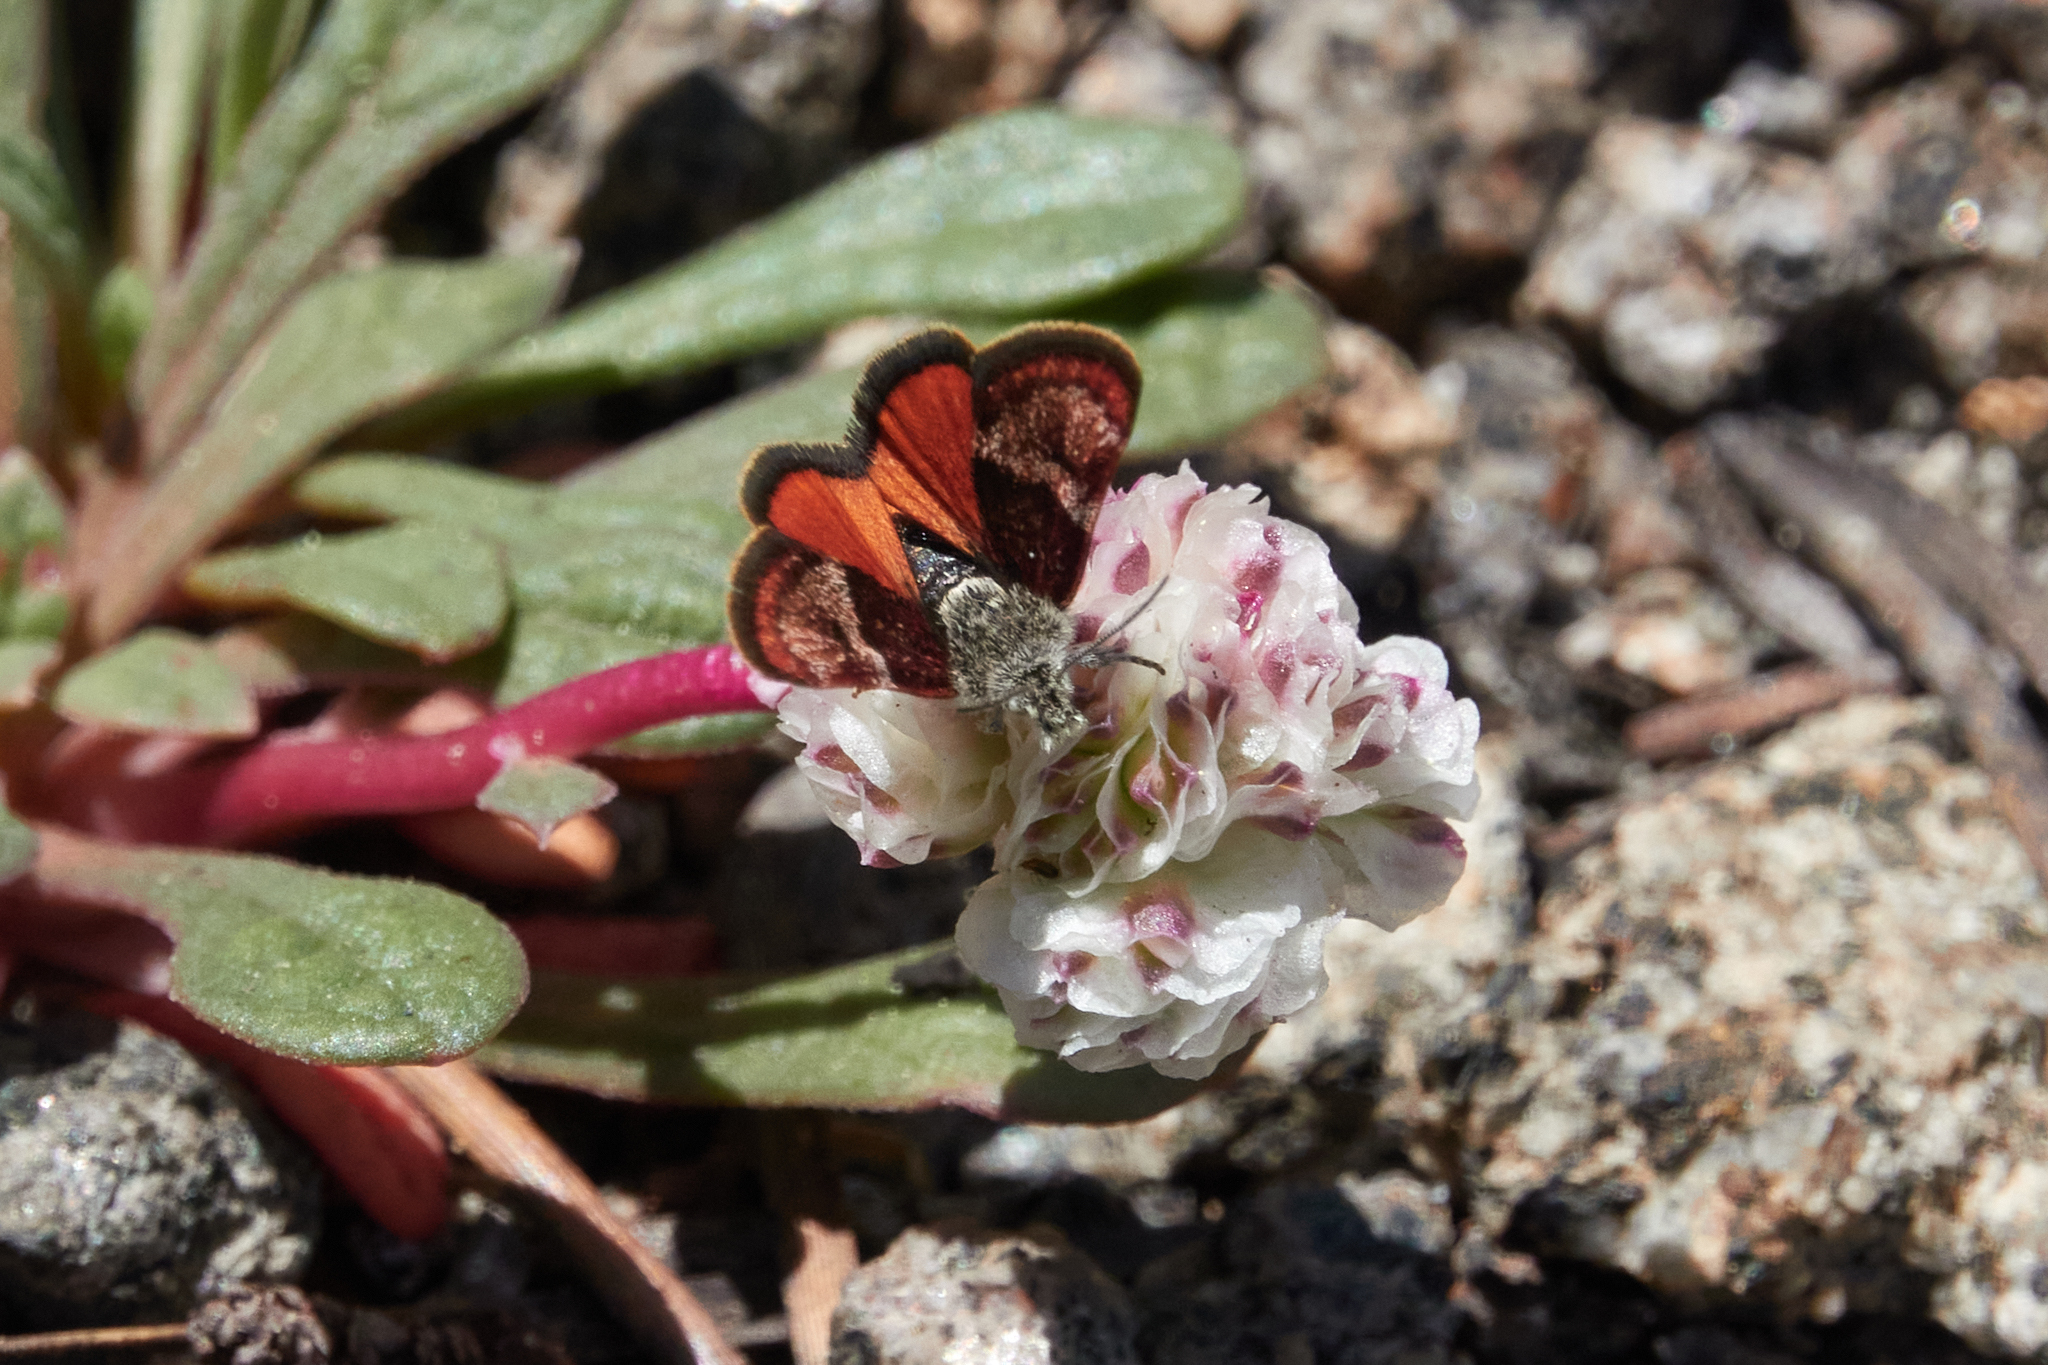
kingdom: Animalia
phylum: Arthropoda
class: Insecta
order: Lepidoptera
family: Crambidae
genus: Gyros
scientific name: Gyros muiri
